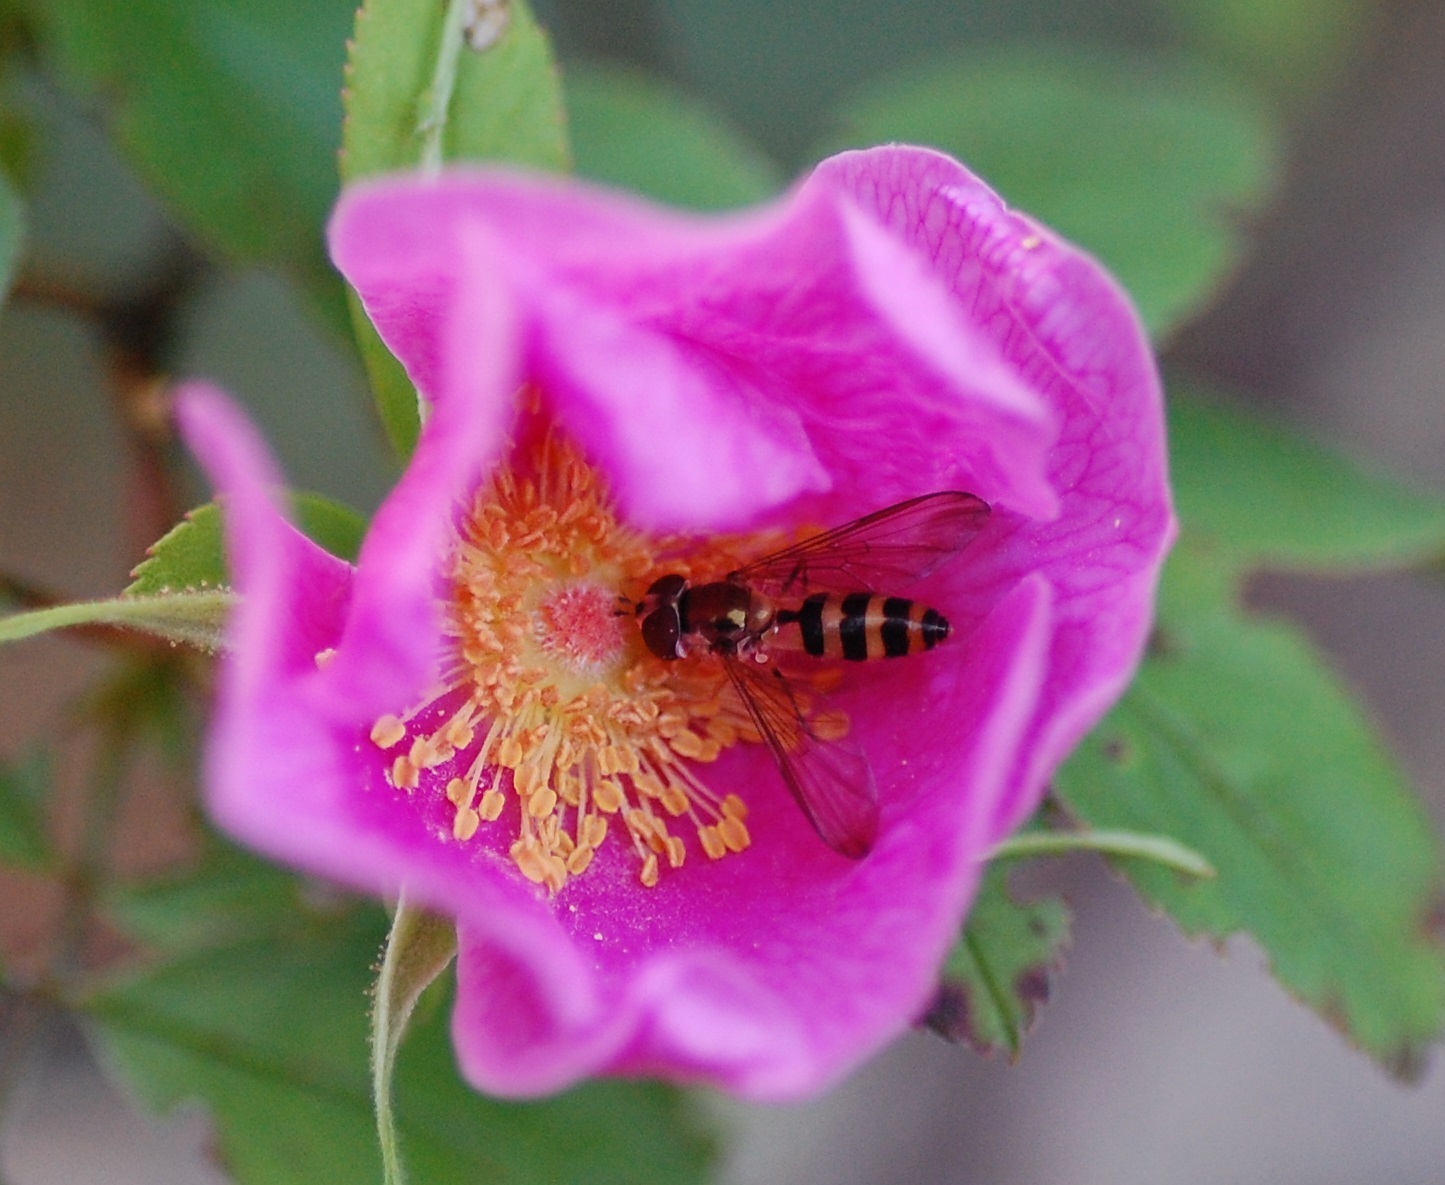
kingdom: Animalia
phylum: Arthropoda
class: Insecta
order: Diptera
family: Syrphidae
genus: Meliscaeva
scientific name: Meliscaeva cinctella
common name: American thintail fly
